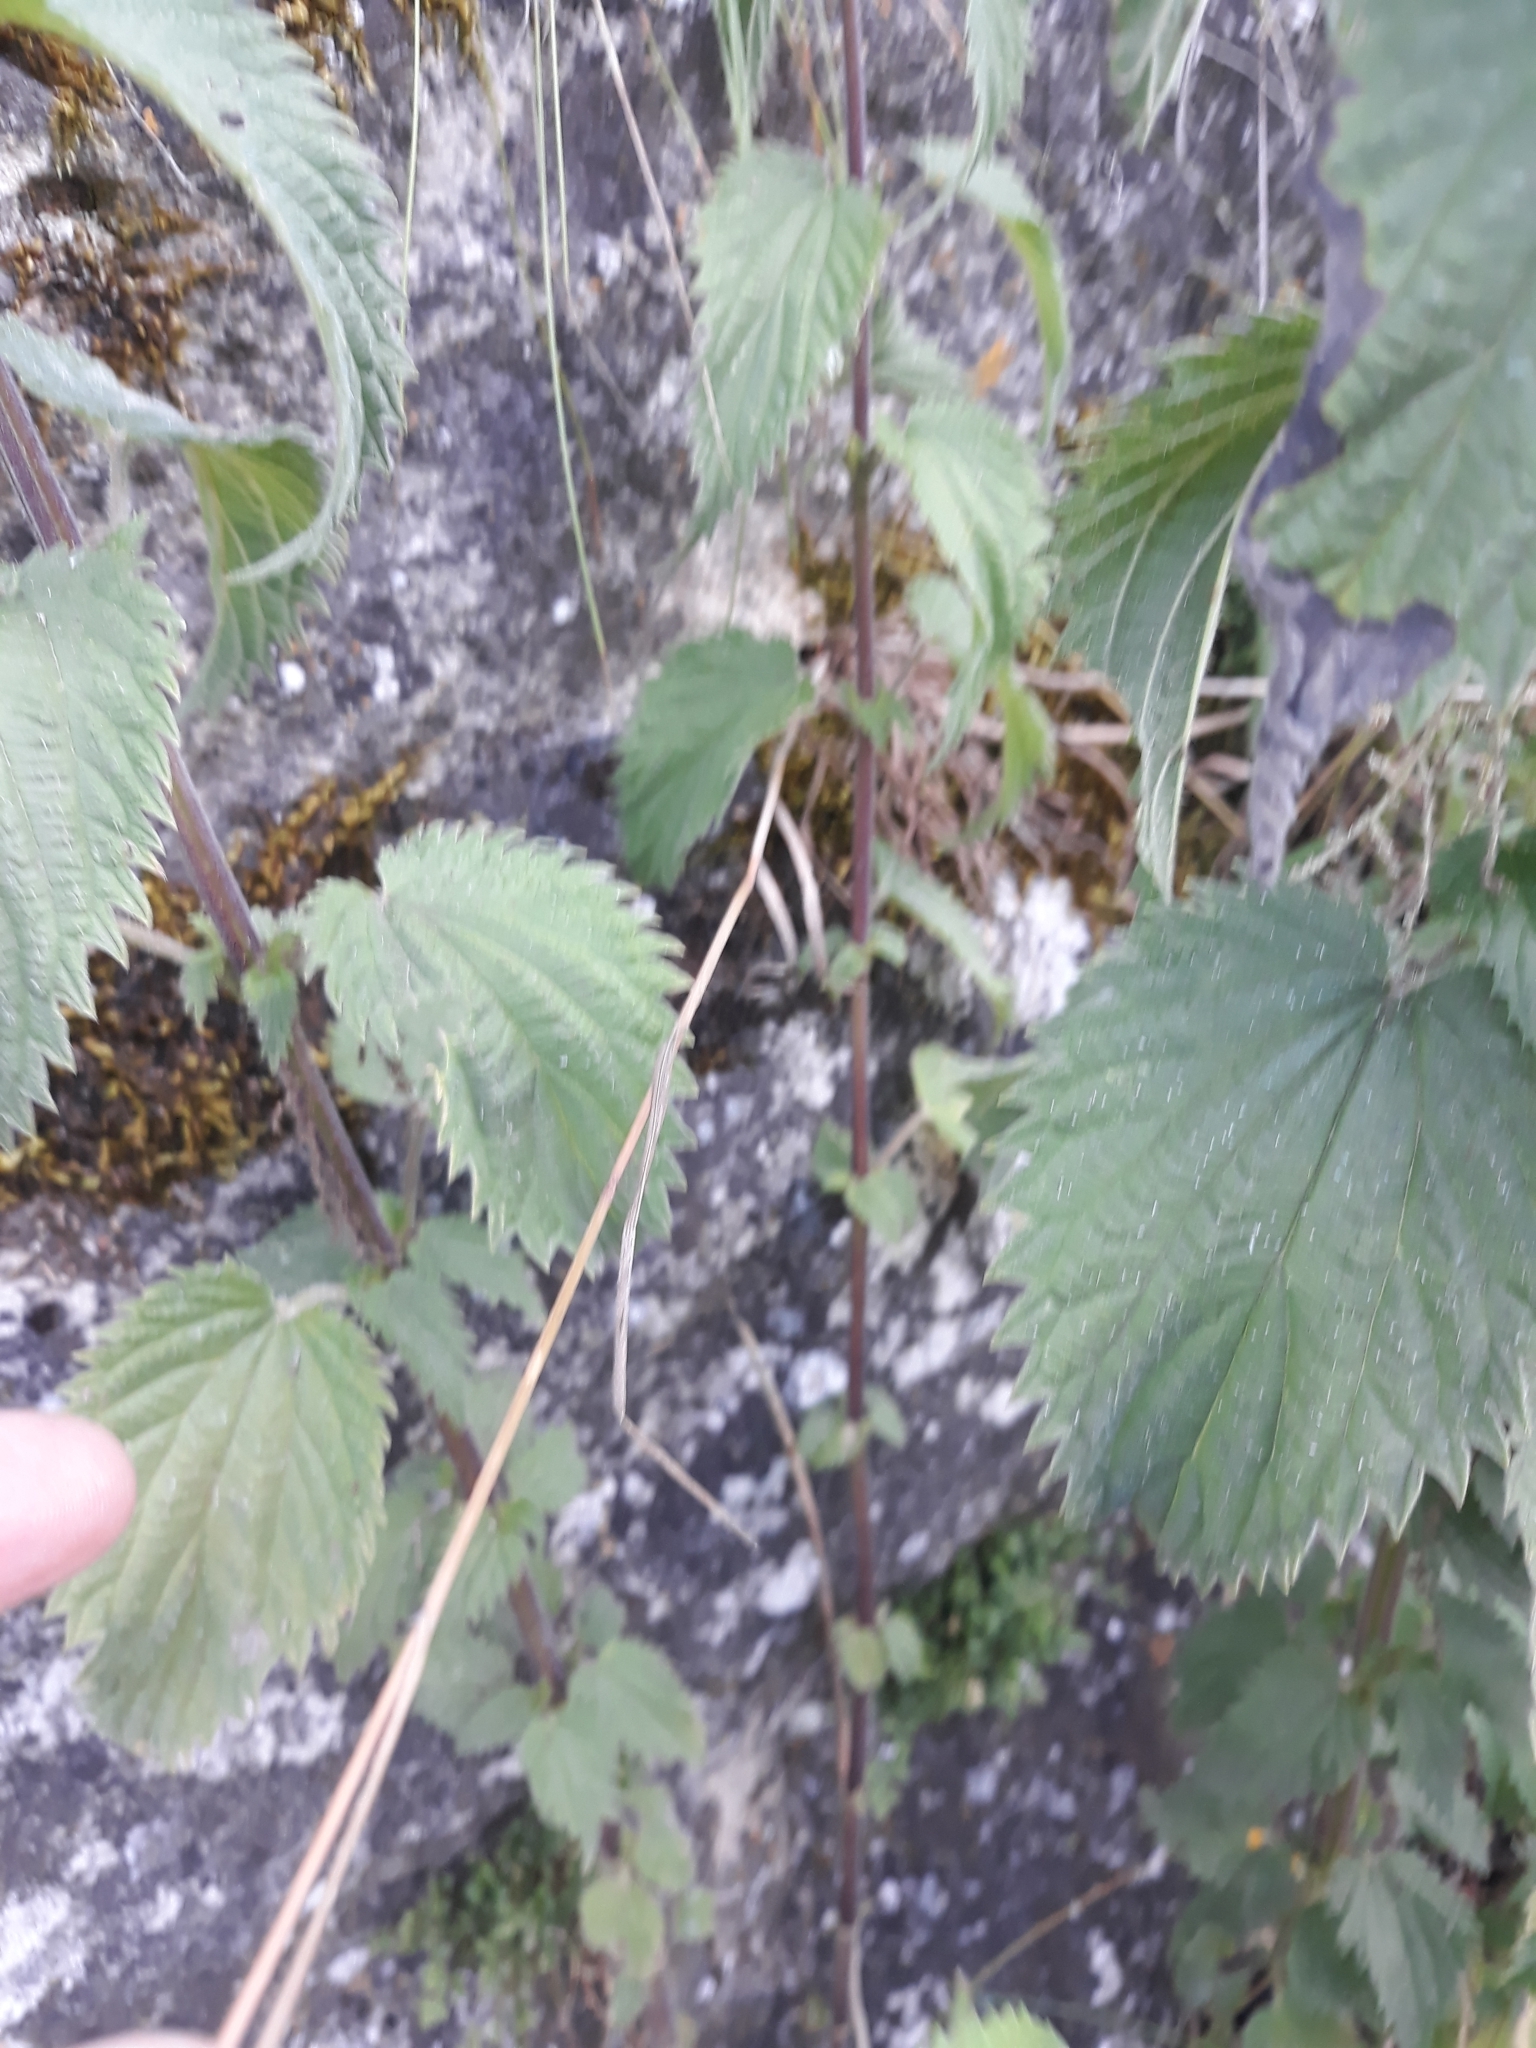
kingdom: Plantae
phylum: Tracheophyta
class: Liliopsida
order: Poales
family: Poaceae
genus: Bromus
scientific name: Bromus sterilis
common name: Poverty brome
